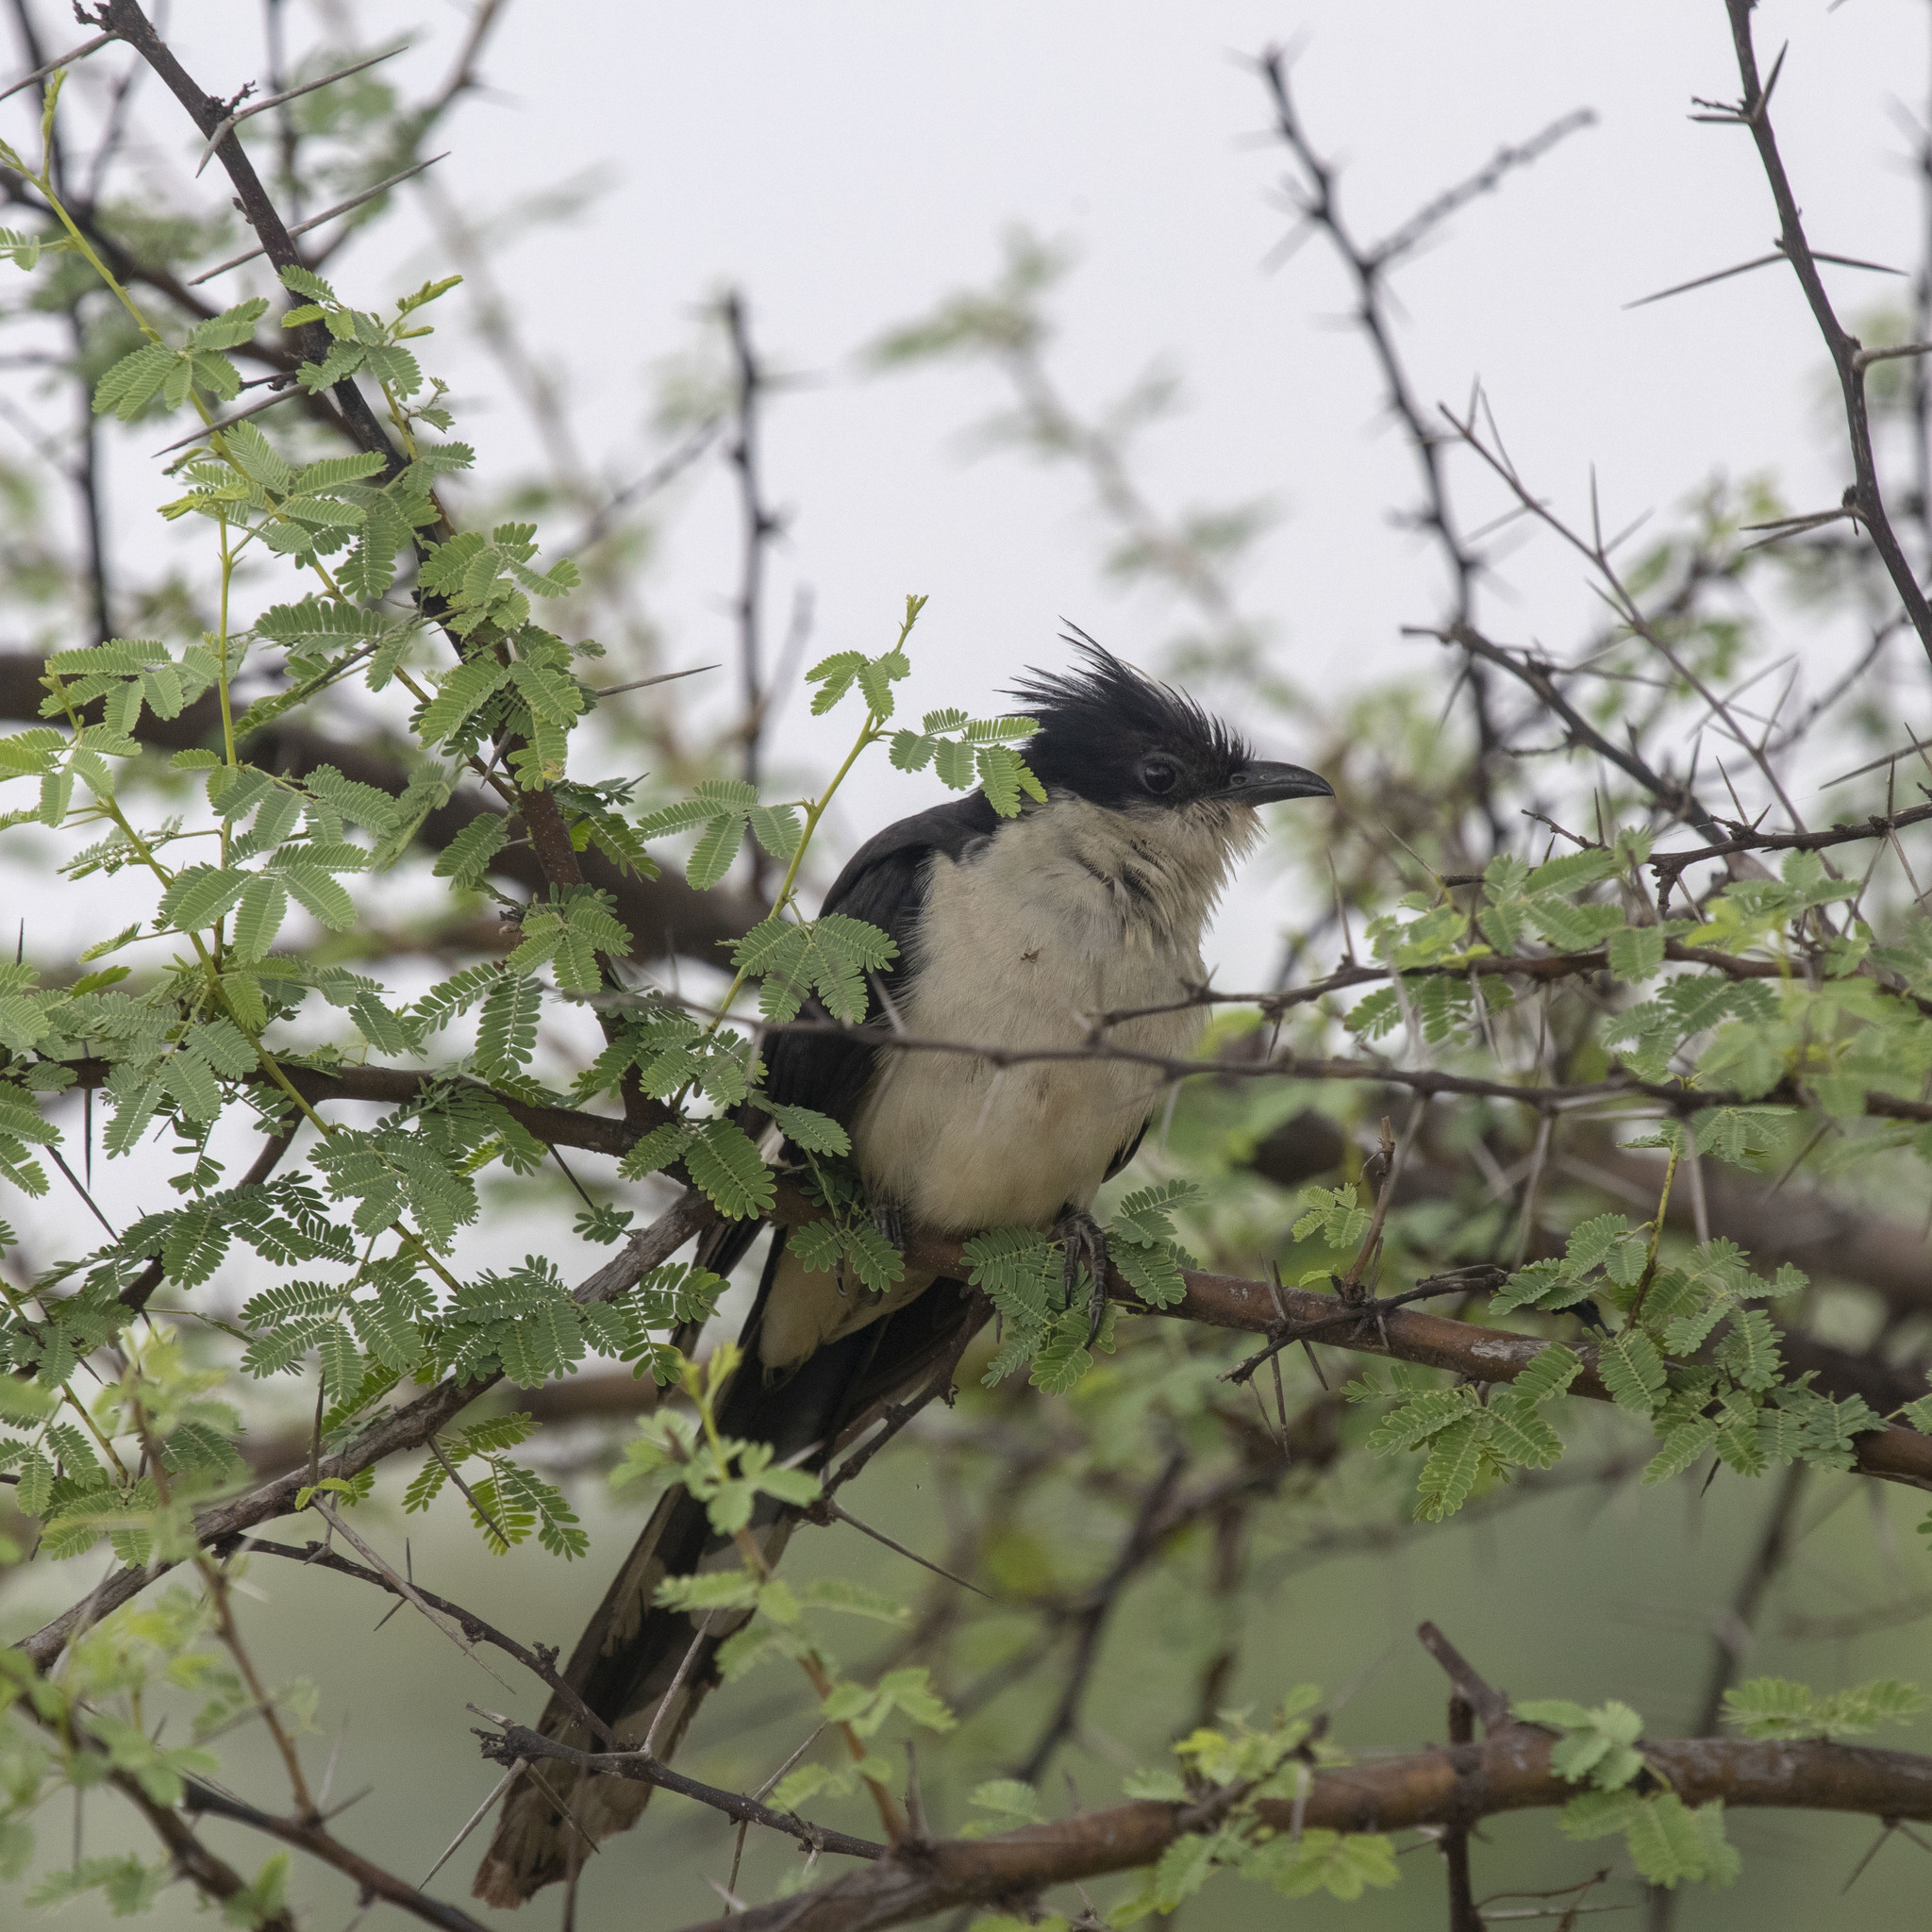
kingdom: Animalia
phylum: Chordata
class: Aves
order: Cuculiformes
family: Cuculidae
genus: Clamator
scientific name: Clamator jacobinus
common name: Jacobin cuckoo
